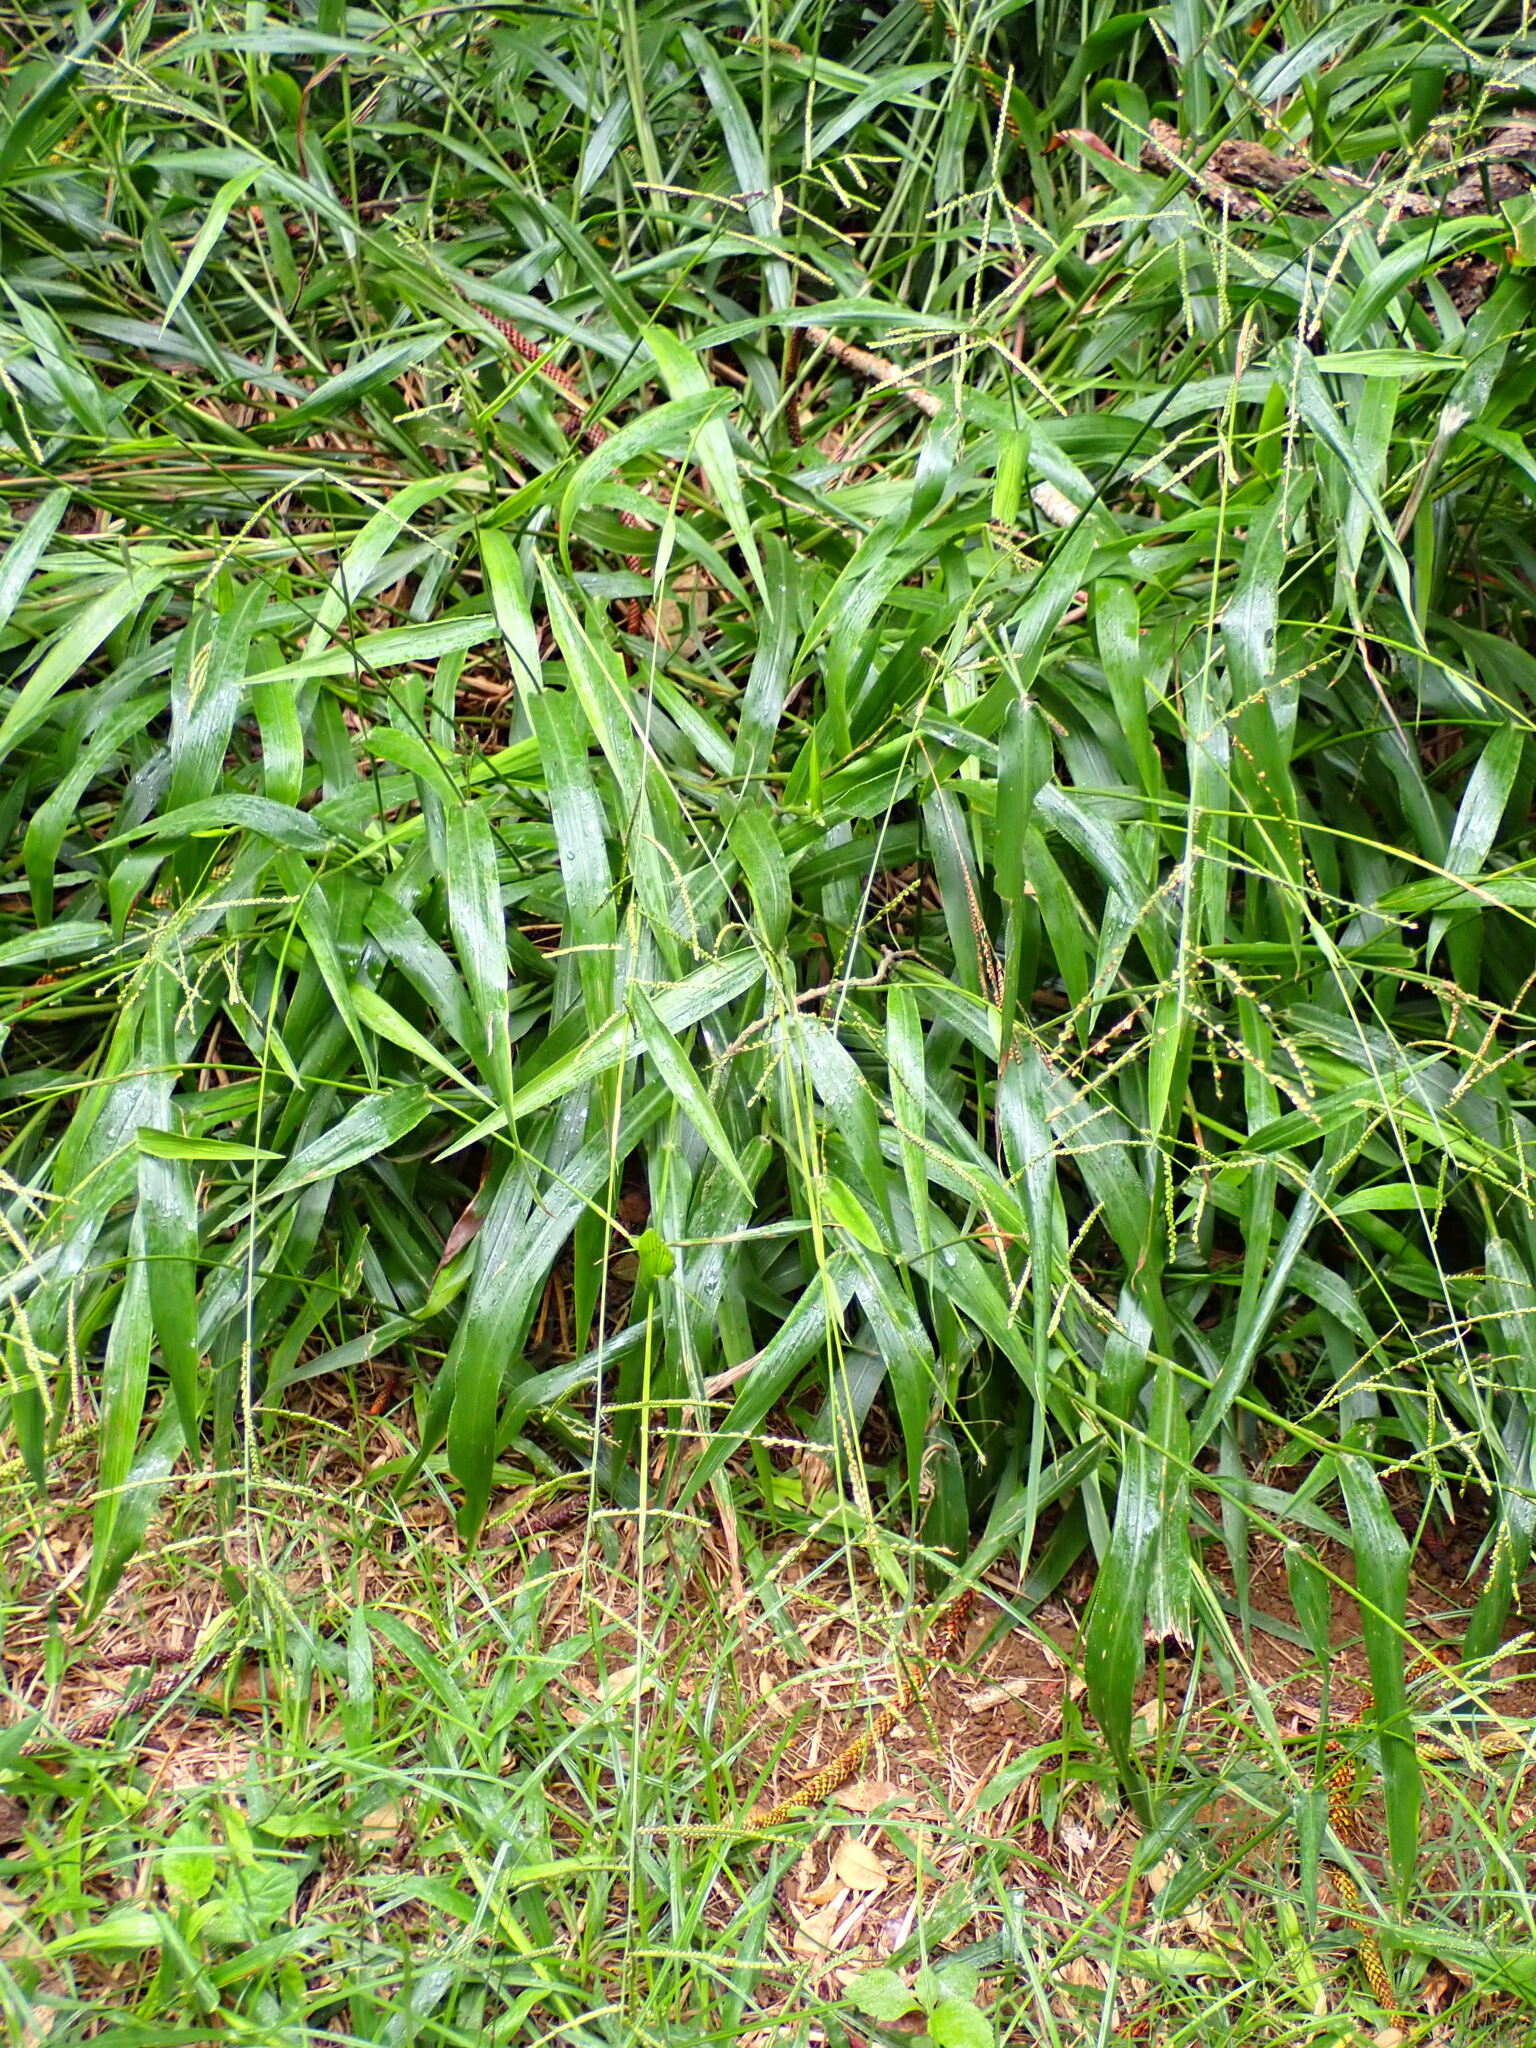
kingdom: Plantae
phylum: Tracheophyta
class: Liliopsida
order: Poales
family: Poaceae
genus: Paspalum
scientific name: Paspalum mandiocanum
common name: Paspalum
